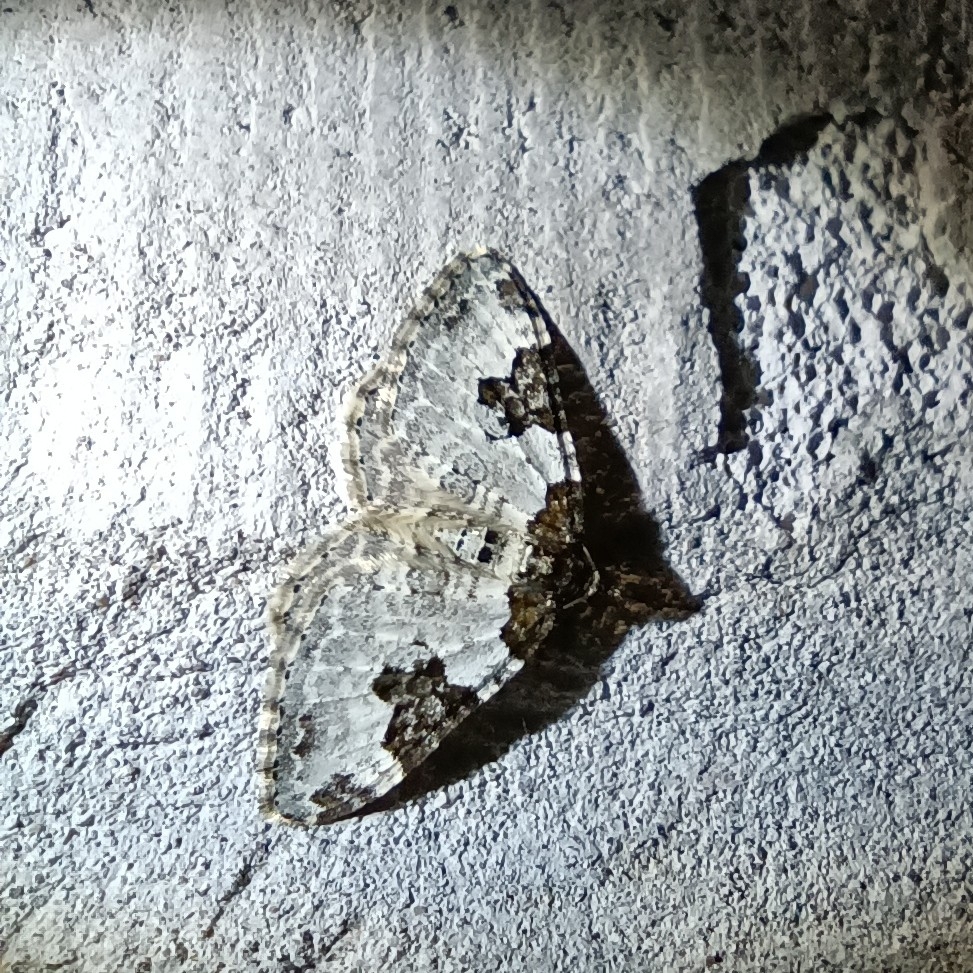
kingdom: Animalia
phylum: Arthropoda
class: Insecta
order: Lepidoptera
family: Geometridae
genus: Xanthorhoe
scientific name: Xanthorhoe fluctuata
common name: Garden carpet
